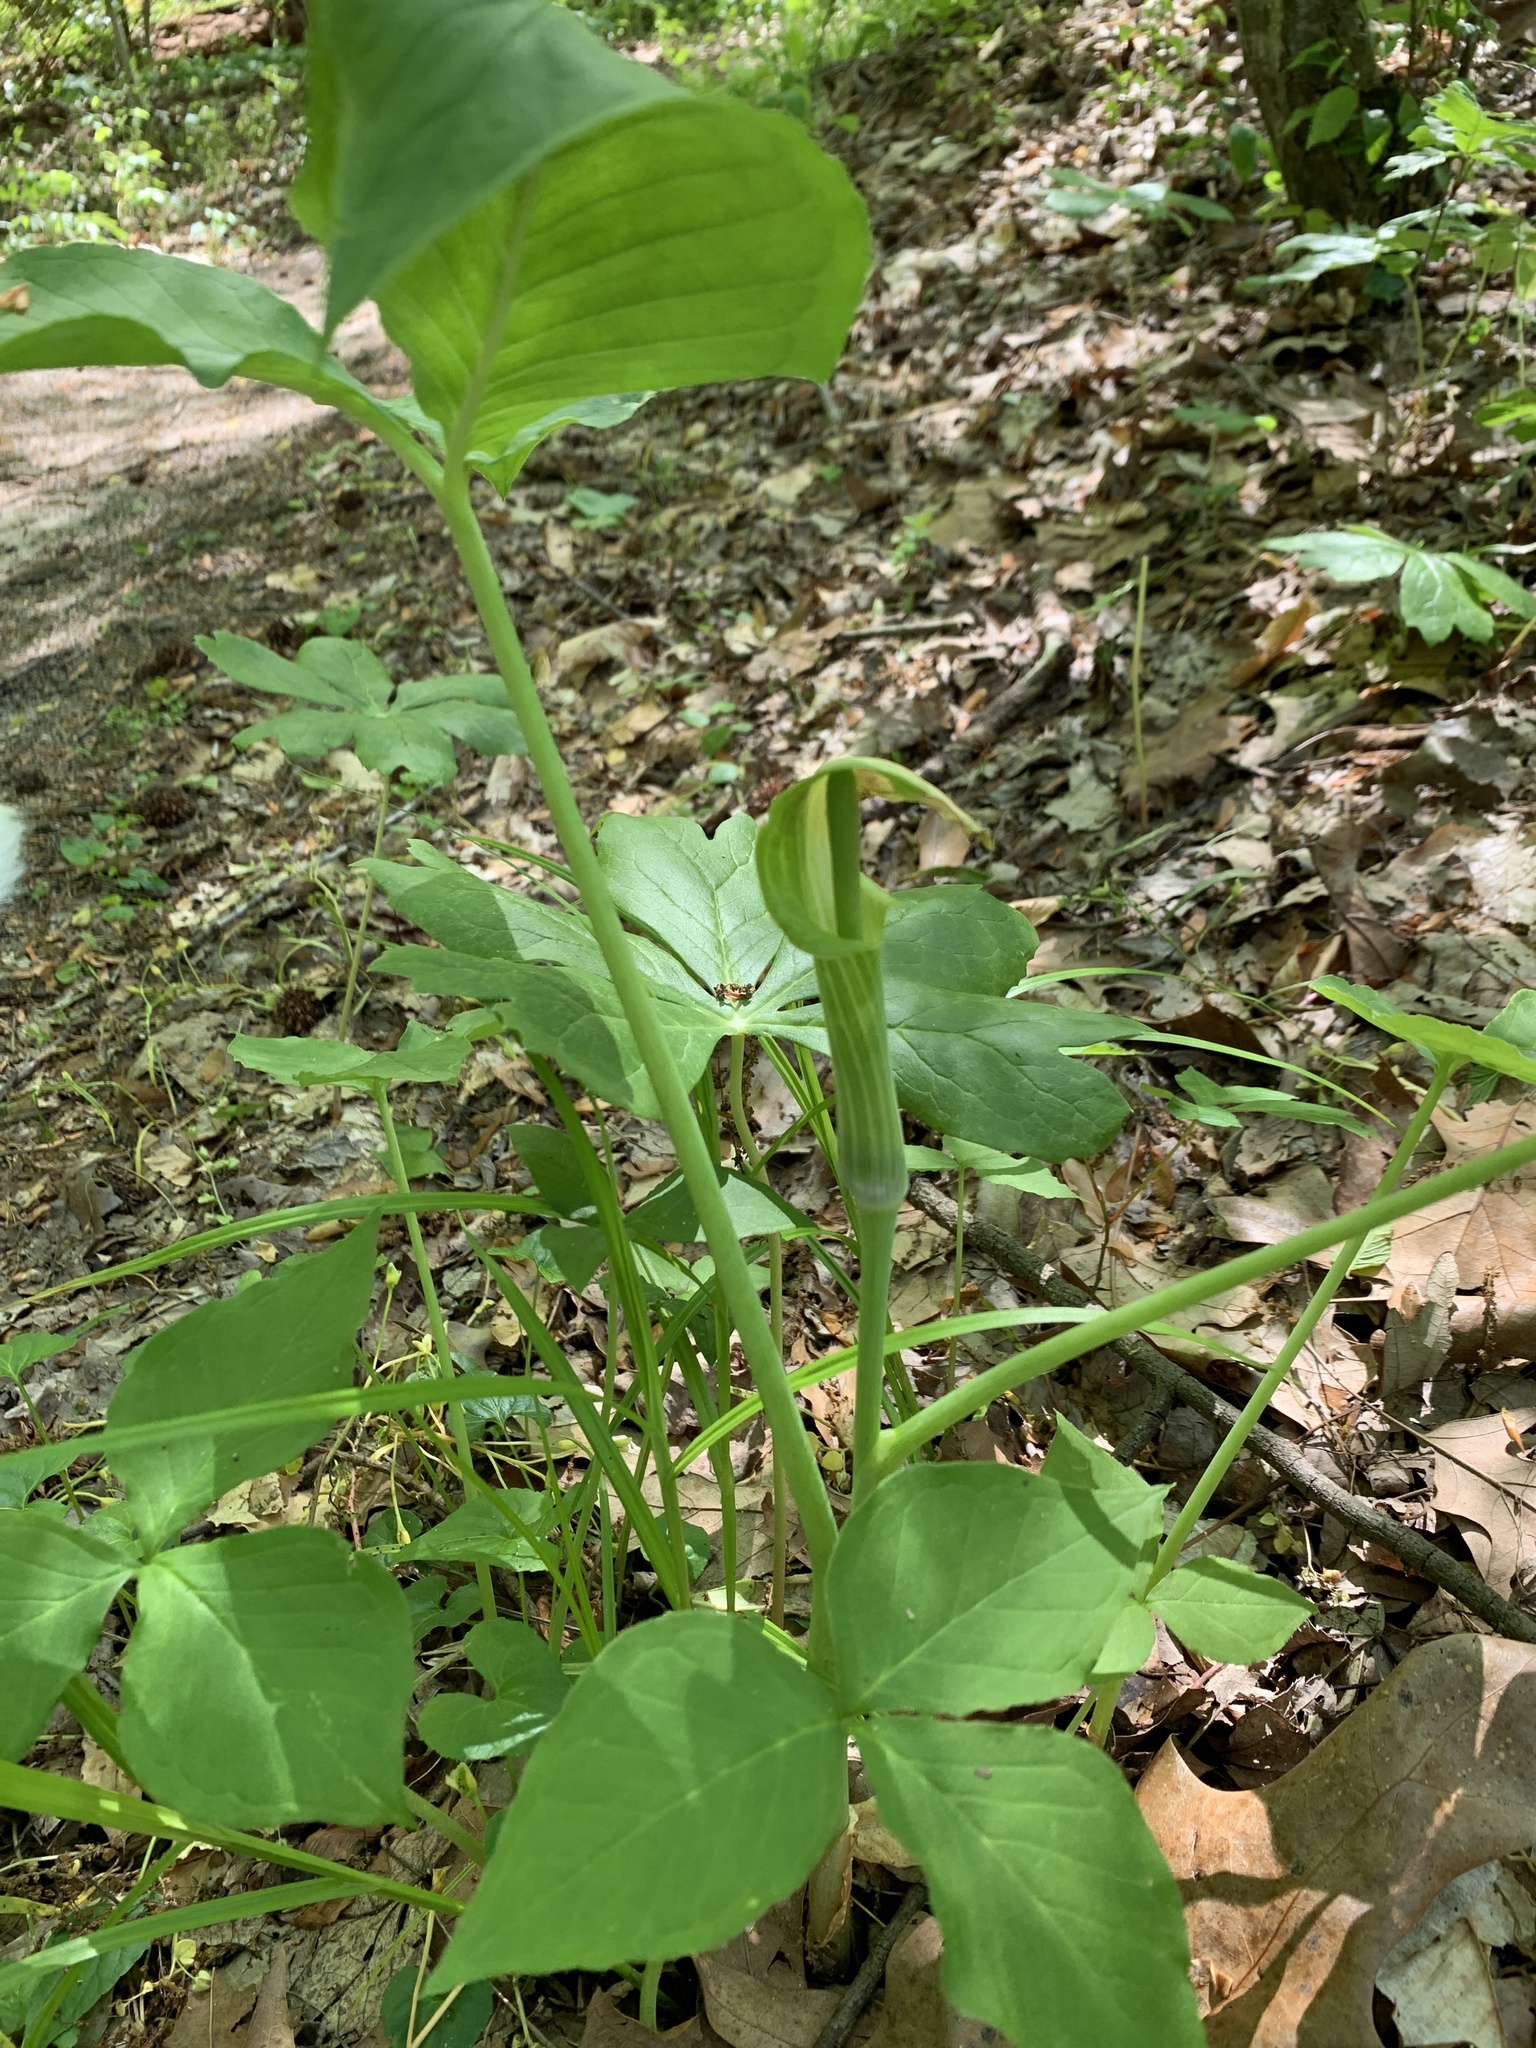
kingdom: Plantae
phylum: Tracheophyta
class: Liliopsida
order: Alismatales
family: Araceae
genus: Arisaema
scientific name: Arisaema triphyllum
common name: Jack-in-the-pulpit
